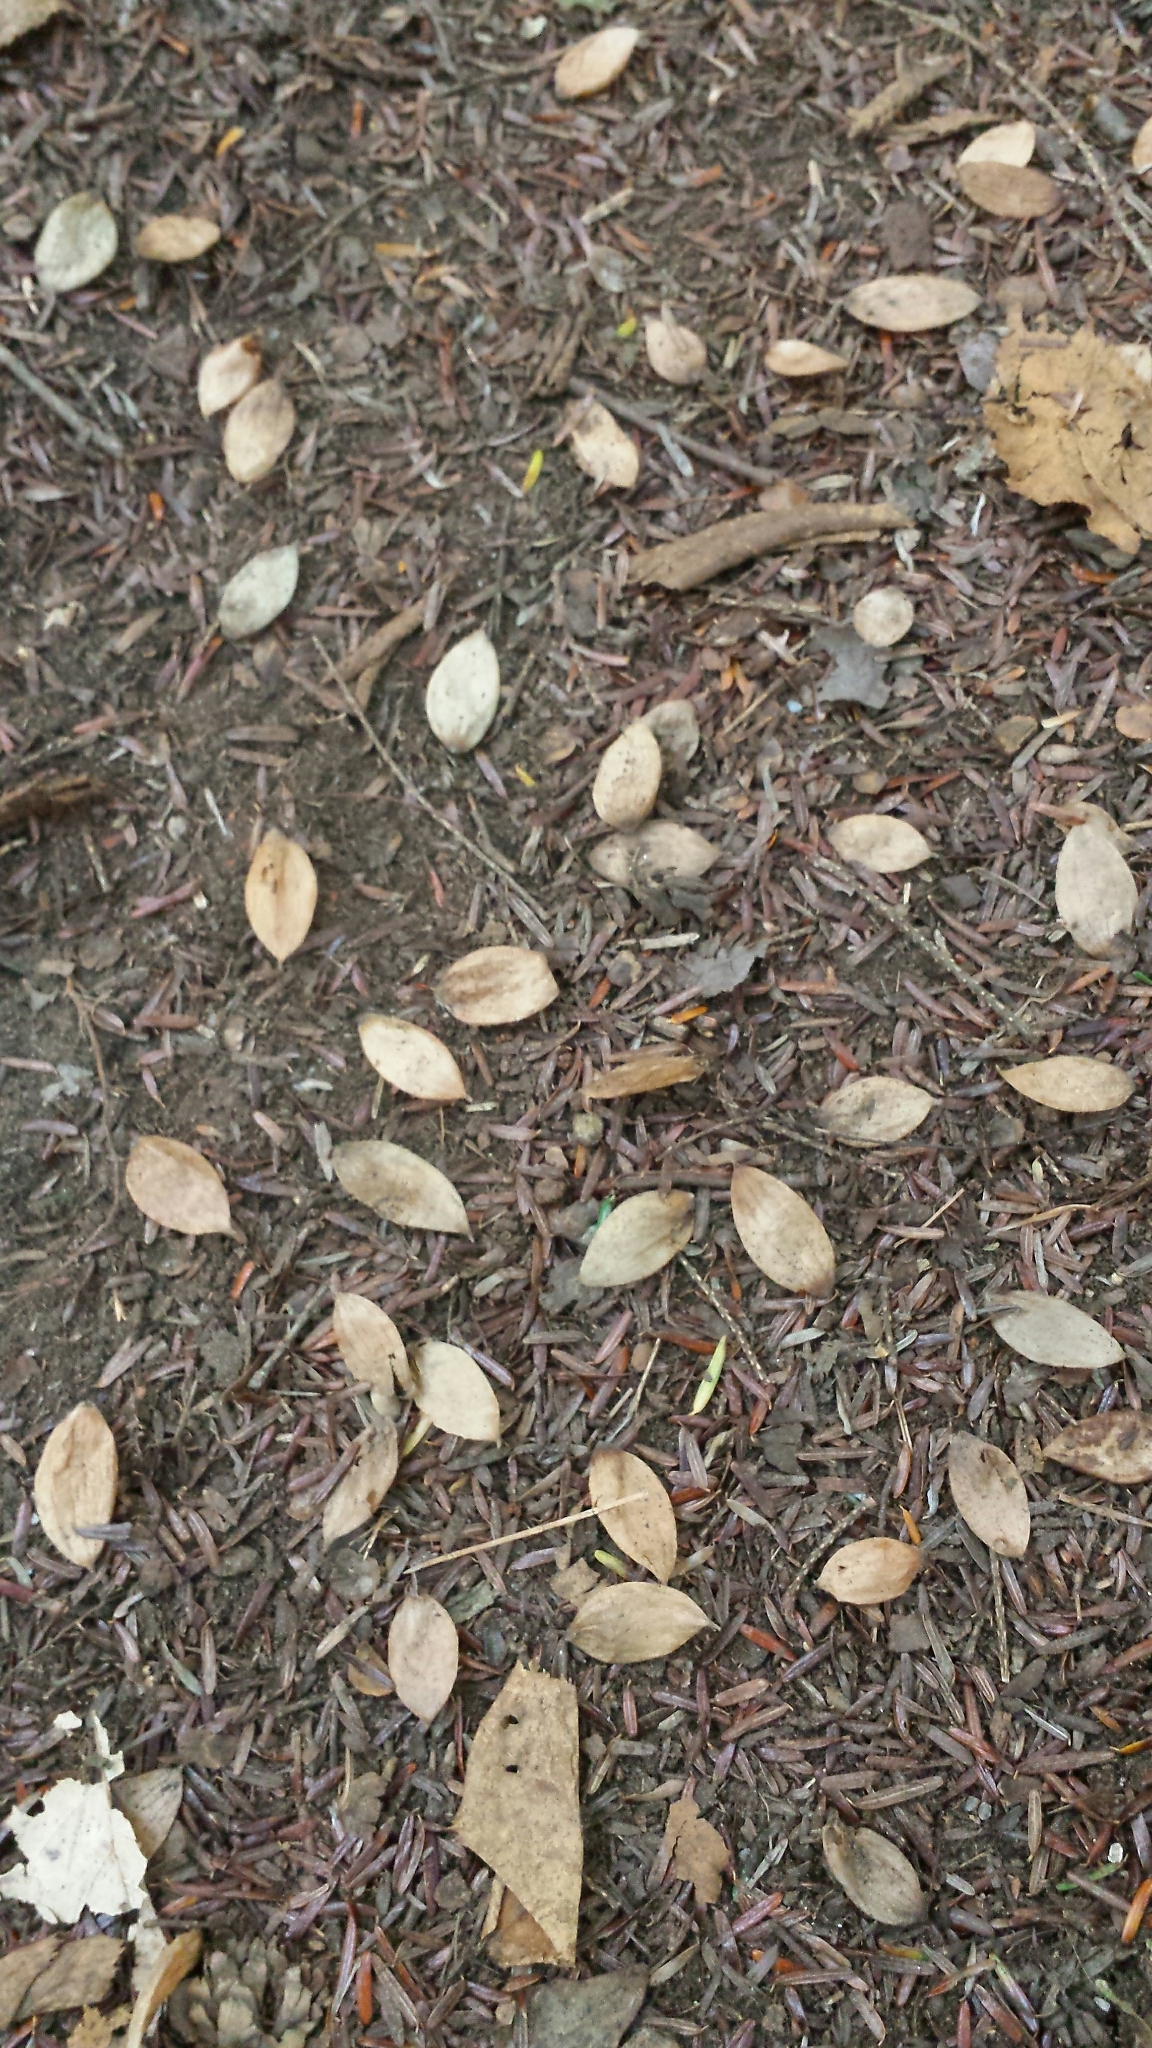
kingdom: Plantae
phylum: Tracheophyta
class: Magnoliopsida
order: Fagales
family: Betulaceae
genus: Ostrya
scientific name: Ostrya virginiana
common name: Ironwood
